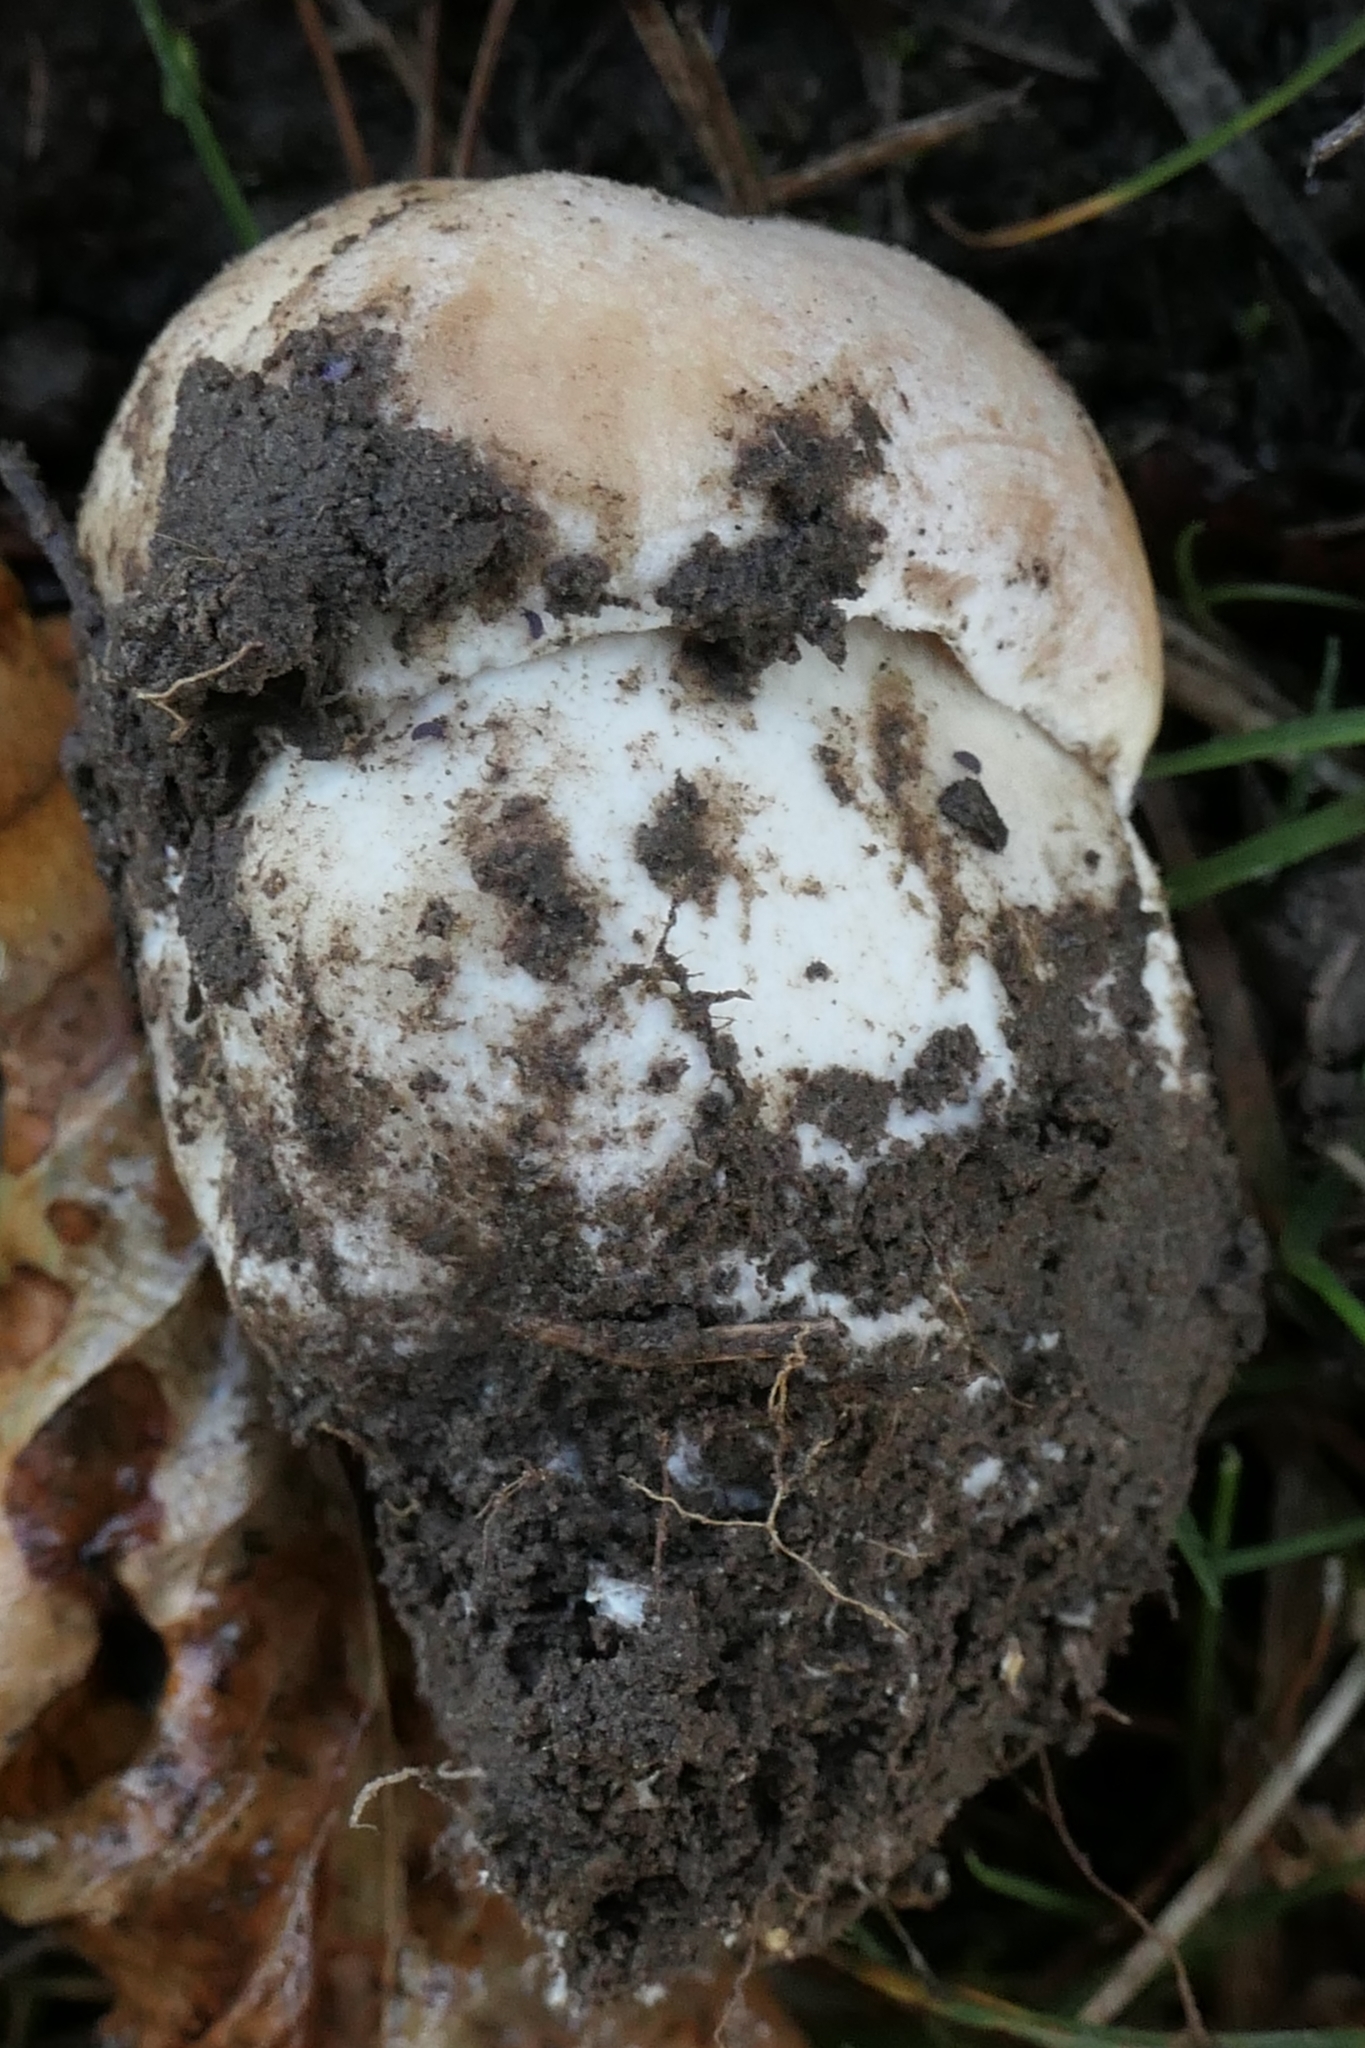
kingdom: Fungi
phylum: Basidiomycota
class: Agaricomycetes
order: Boletales
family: Boletaceae
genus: Boletus
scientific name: Boletus edulis
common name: Cep
